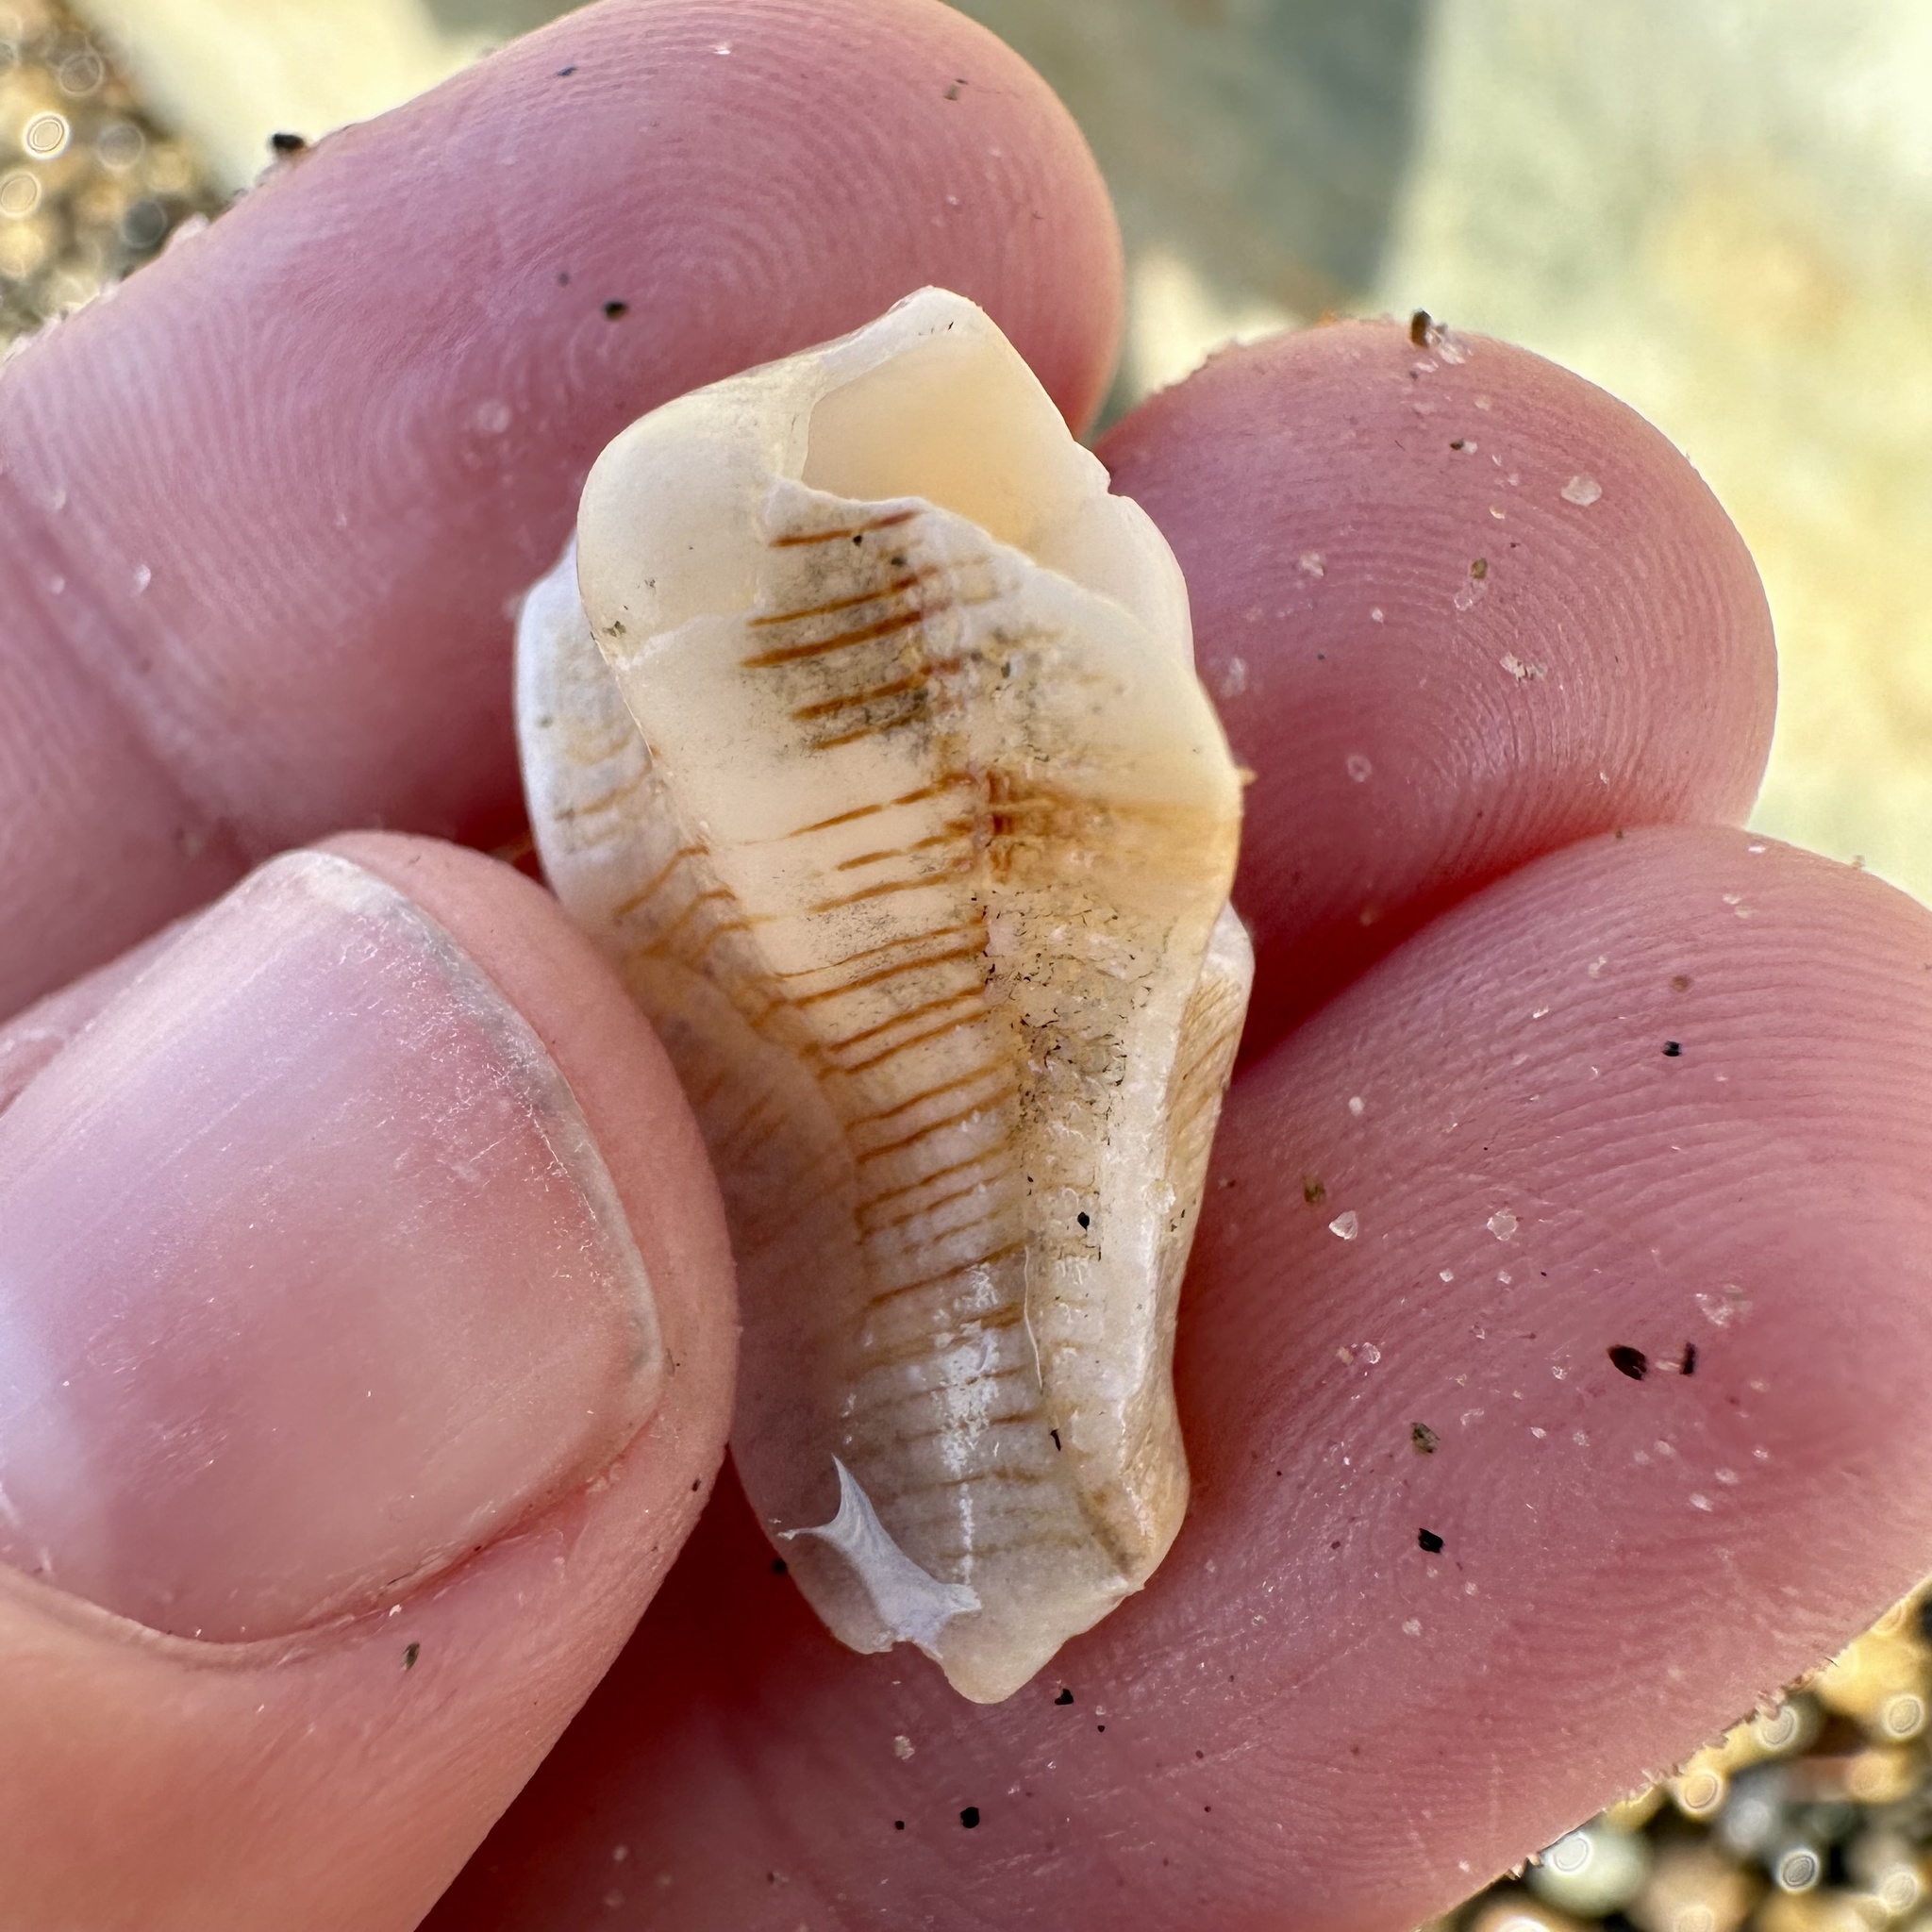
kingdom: Animalia
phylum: Mollusca
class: Gastropoda
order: Neogastropoda
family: Muricidae
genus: Pteropurpura
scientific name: Pteropurpura festiva
